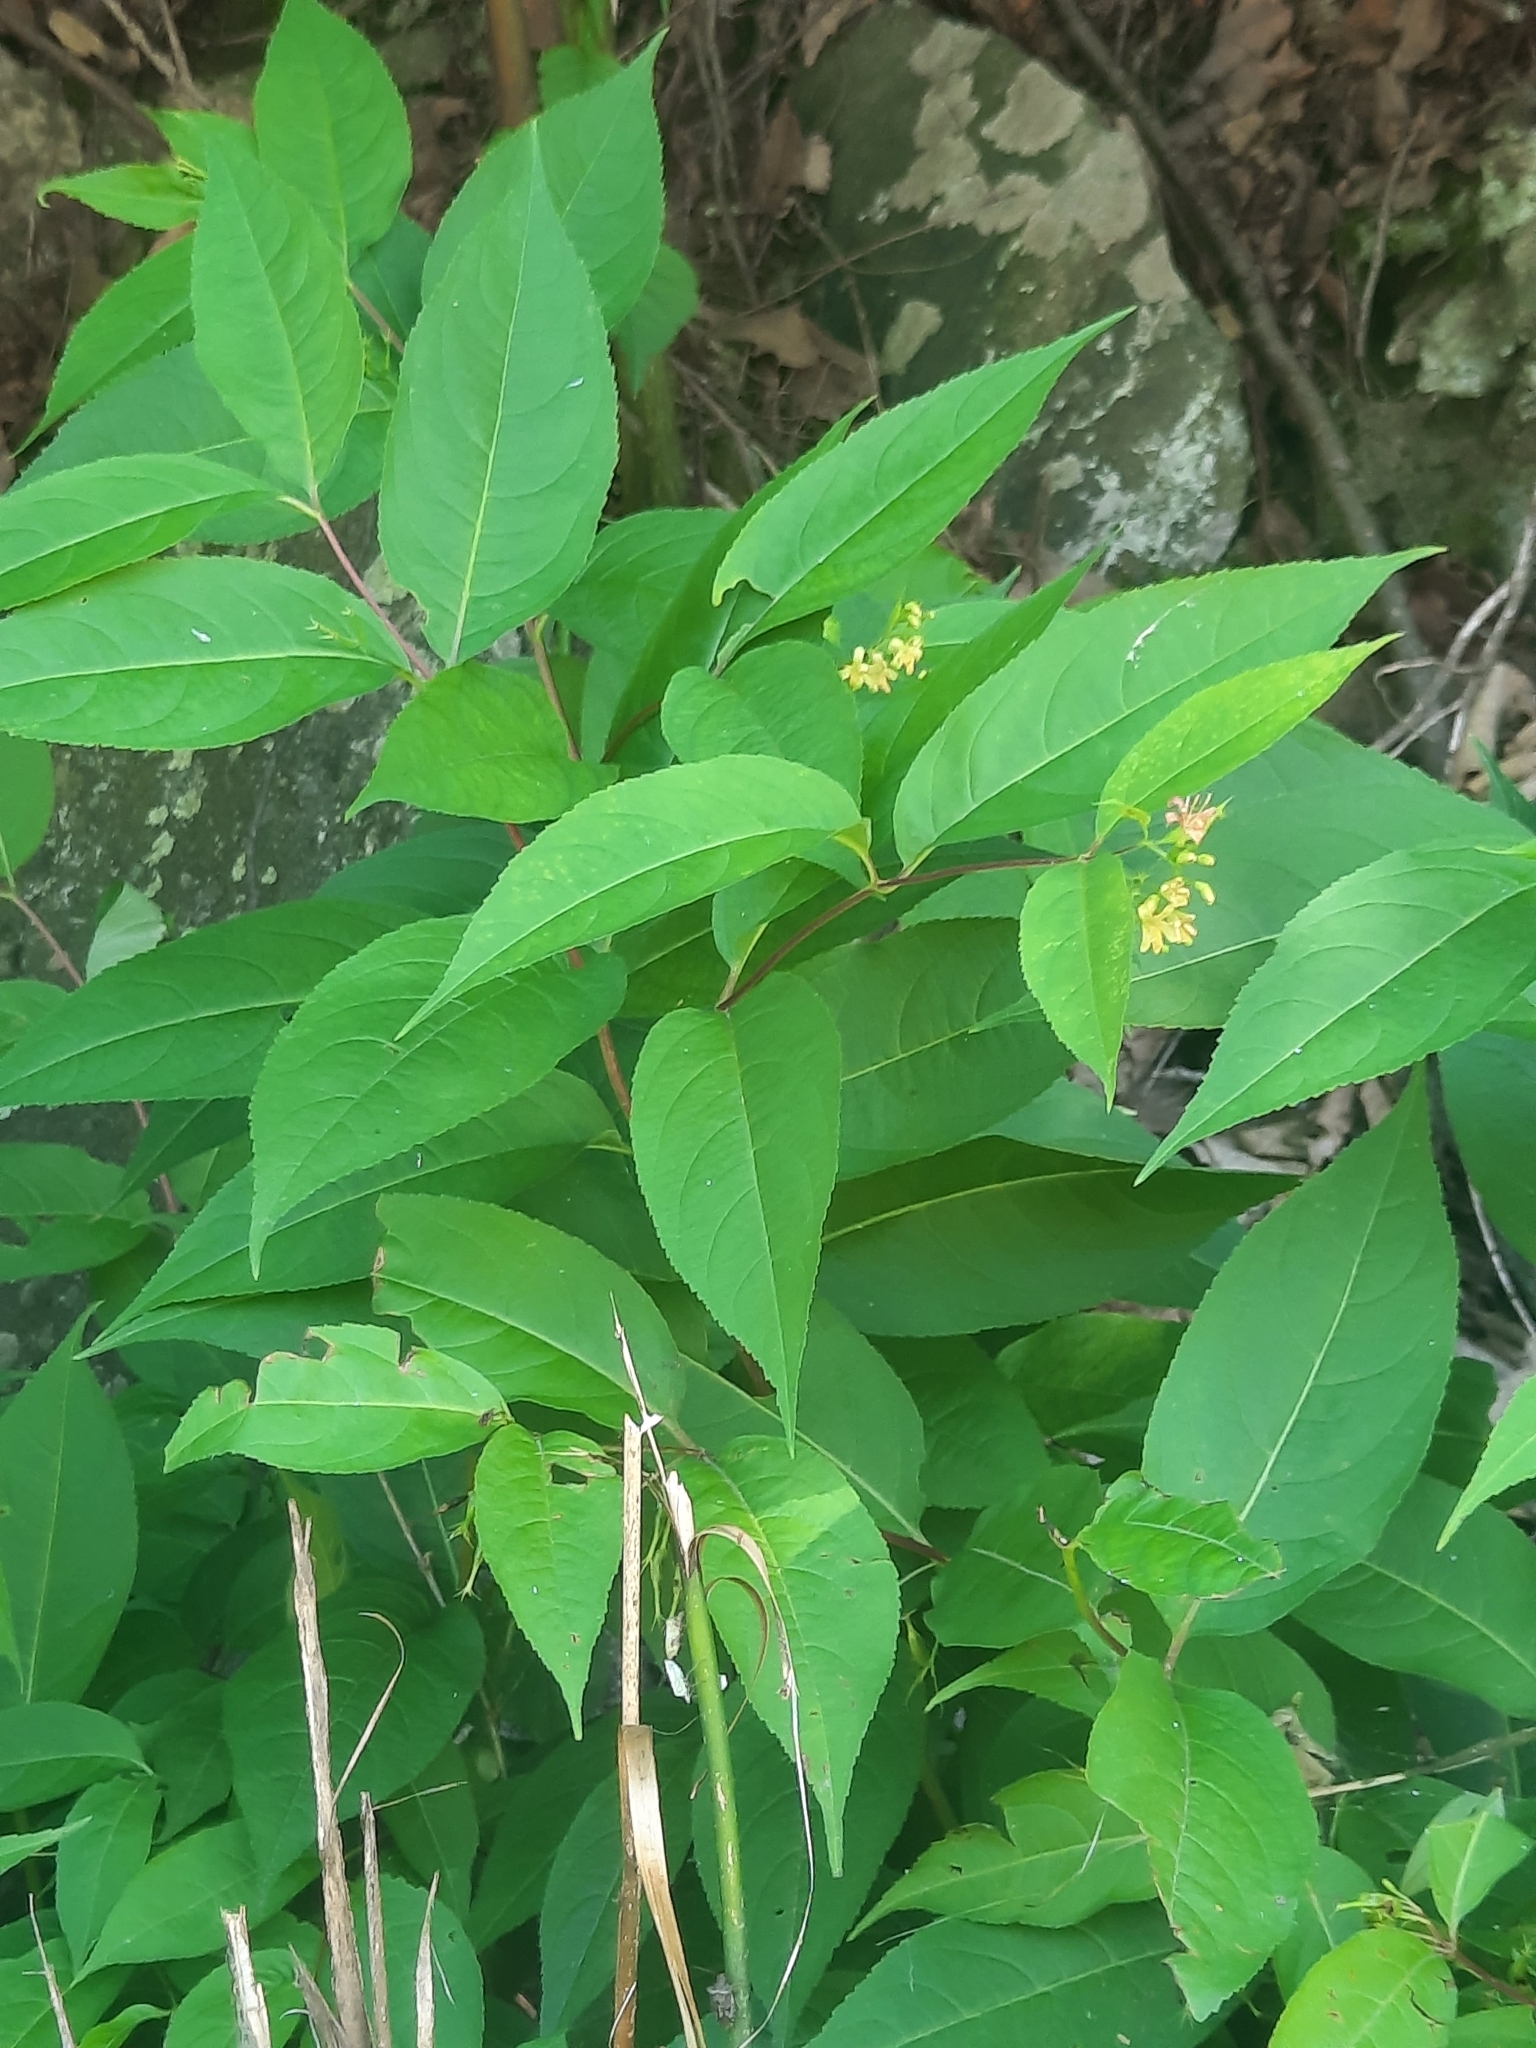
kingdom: Plantae
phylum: Tracheophyta
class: Magnoliopsida
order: Dipsacales
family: Caprifoliaceae
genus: Diervilla
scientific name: Diervilla lonicera
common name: Bush-honeysuckle
